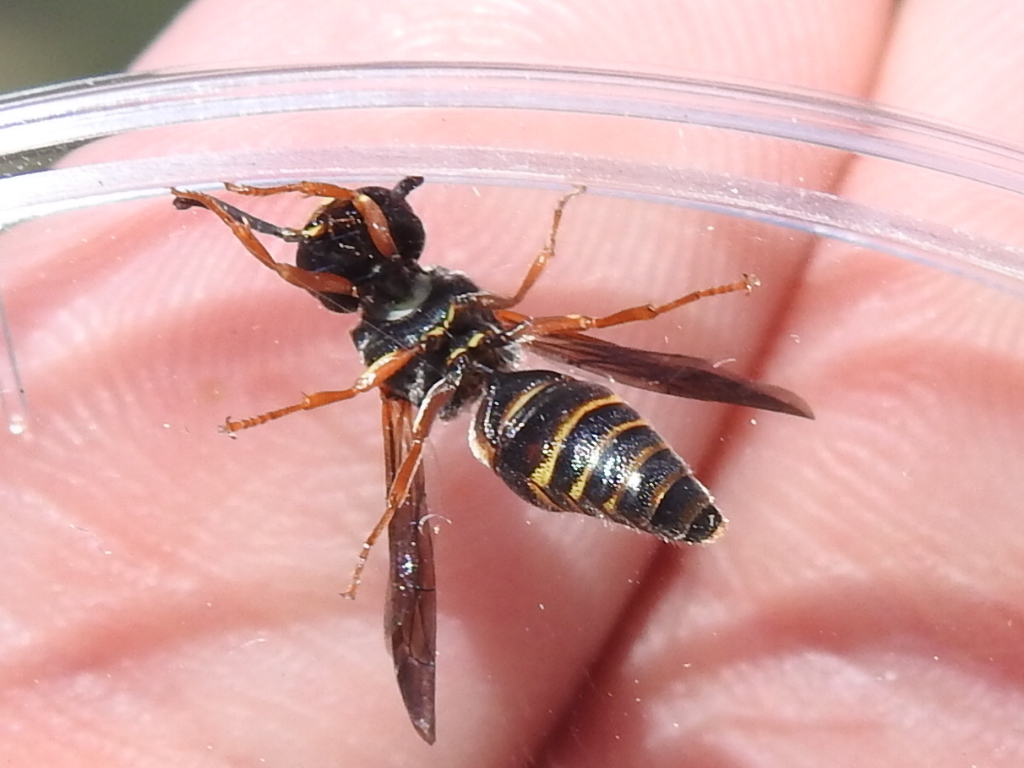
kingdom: Animalia
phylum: Arthropoda
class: Insecta
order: Hymenoptera
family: Eumenidae
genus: Euodynerus
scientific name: Euodynerus annulatus
